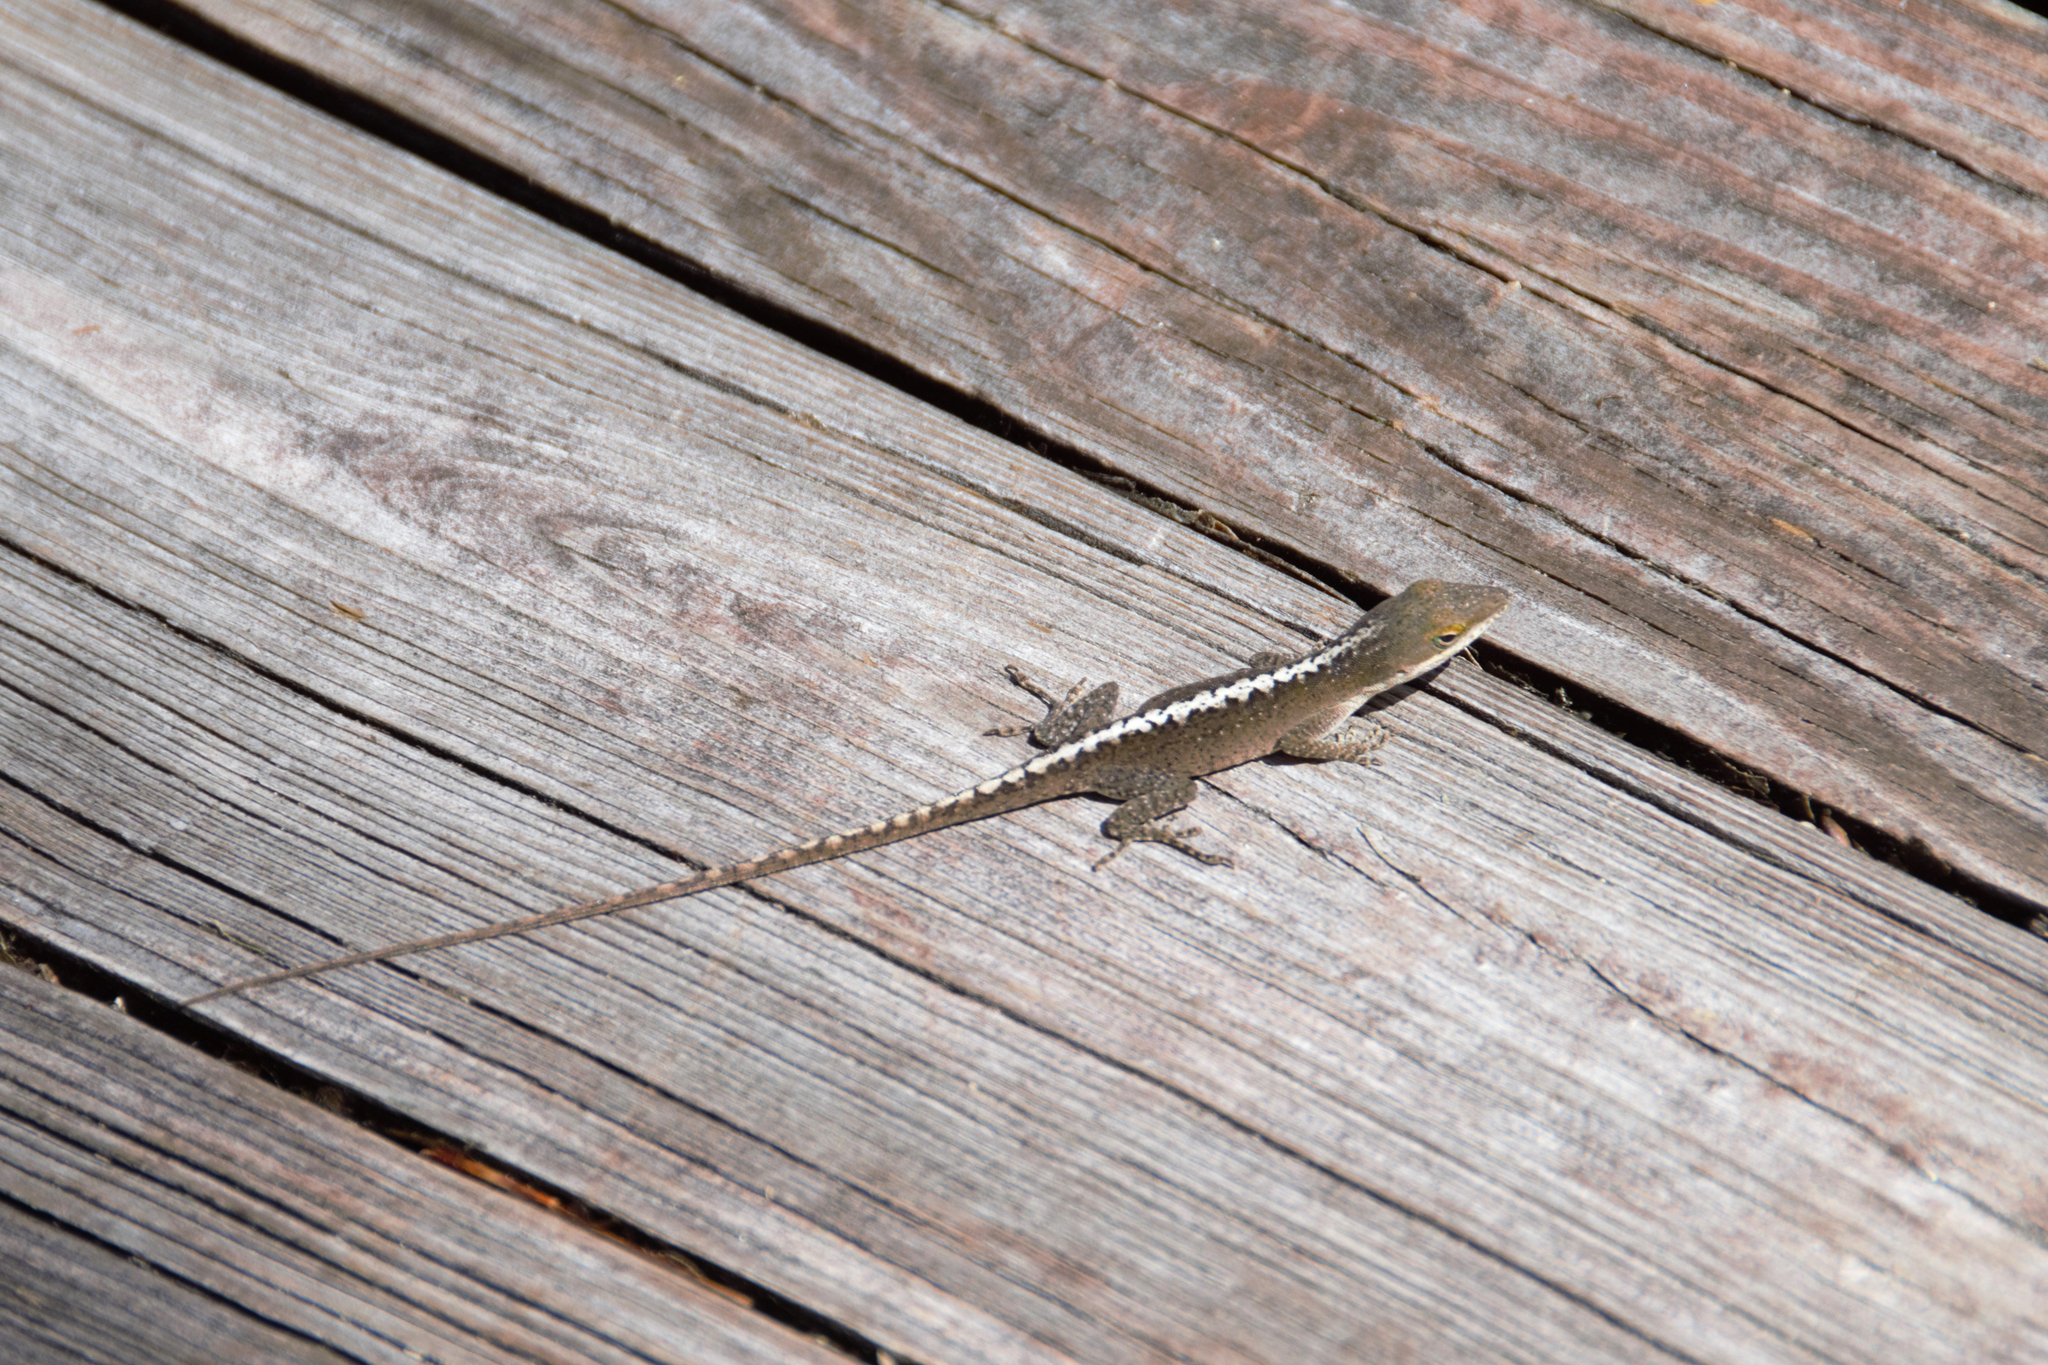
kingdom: Animalia
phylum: Chordata
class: Squamata
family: Dactyloidae
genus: Anolis
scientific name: Anolis carolinensis
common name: Green anole
